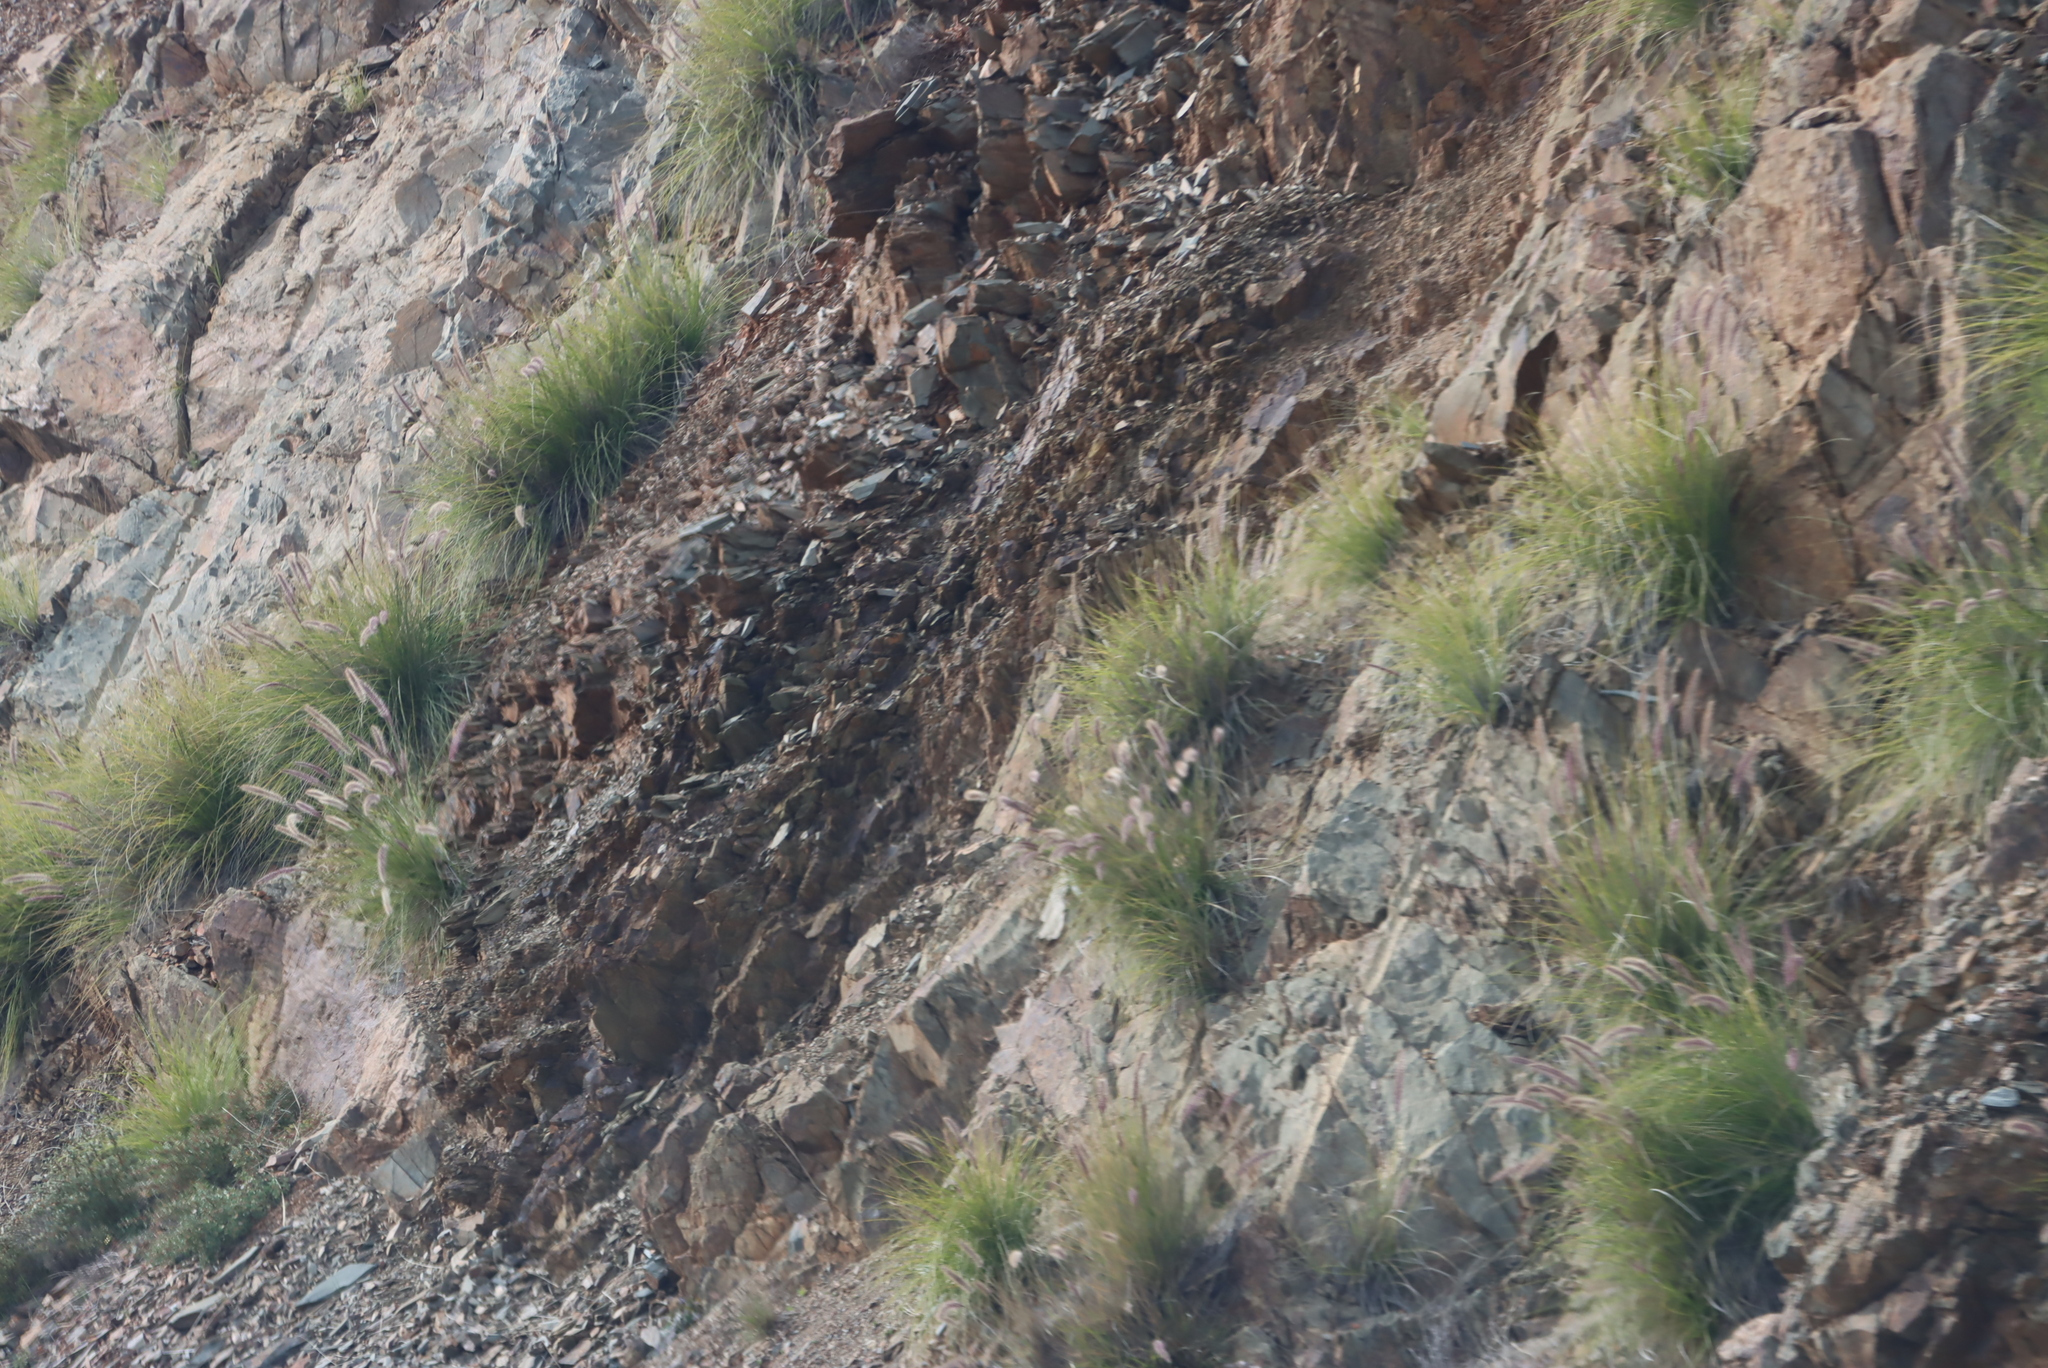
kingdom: Plantae
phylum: Tracheophyta
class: Liliopsida
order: Poales
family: Poaceae
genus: Cenchrus
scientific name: Cenchrus setaceus
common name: Crimson fountaingrass
